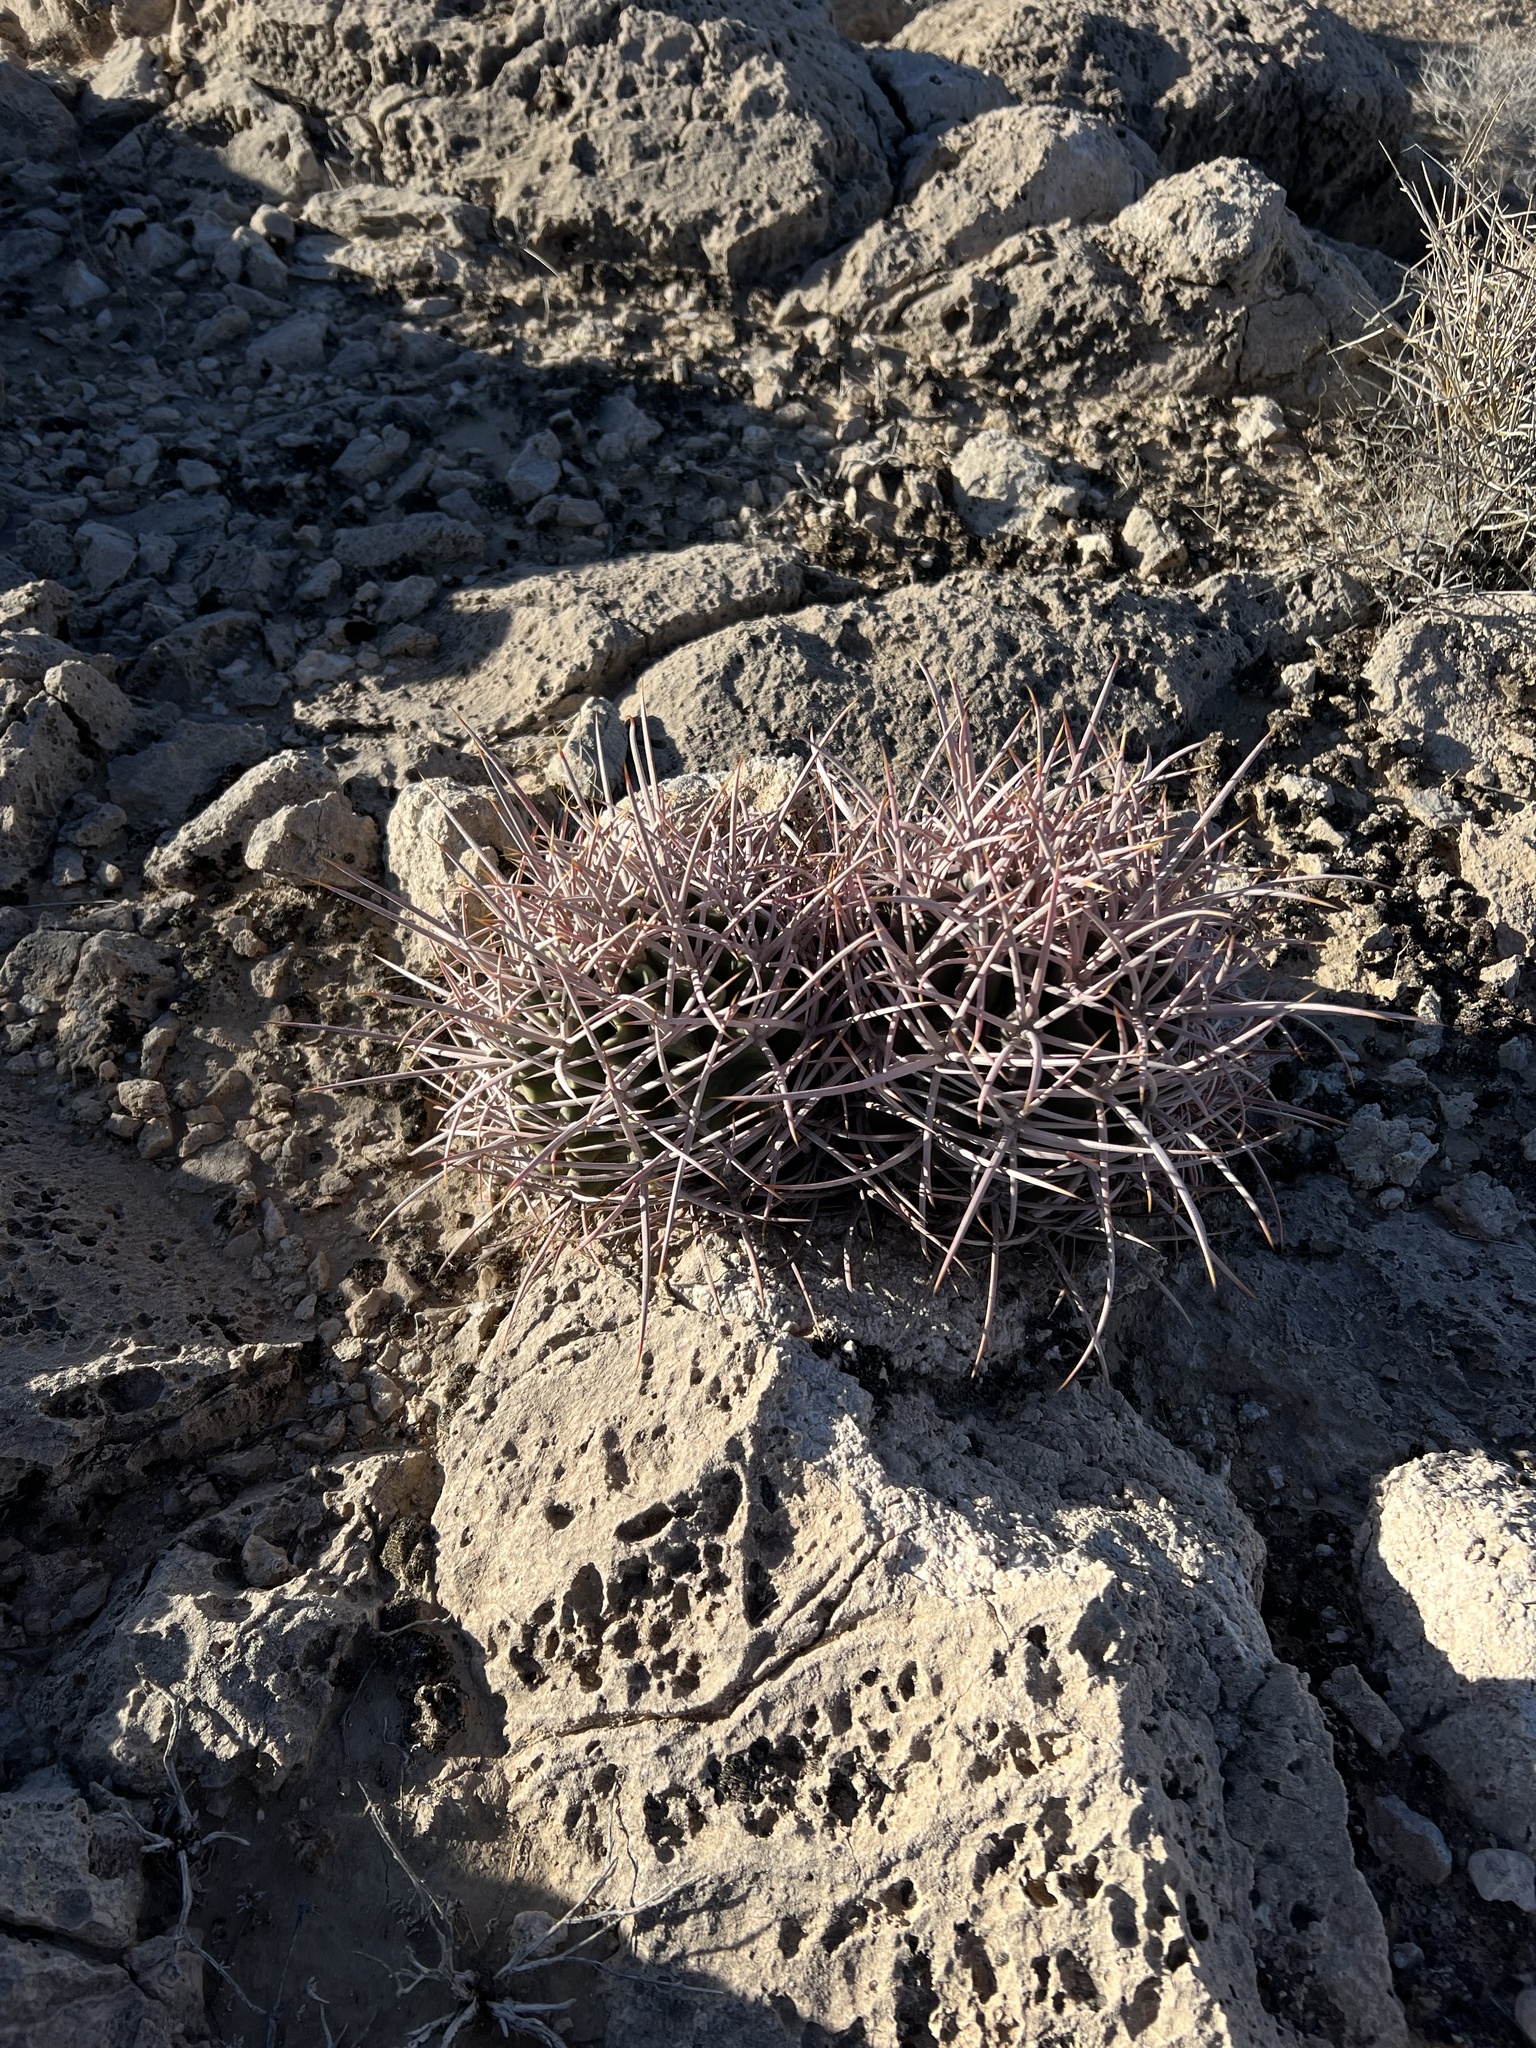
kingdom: Plantae
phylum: Tracheophyta
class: Magnoliopsida
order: Caryophyllales
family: Cactaceae
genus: Echinocactus
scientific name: Echinocactus polycephalus
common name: Cottontop cactus
